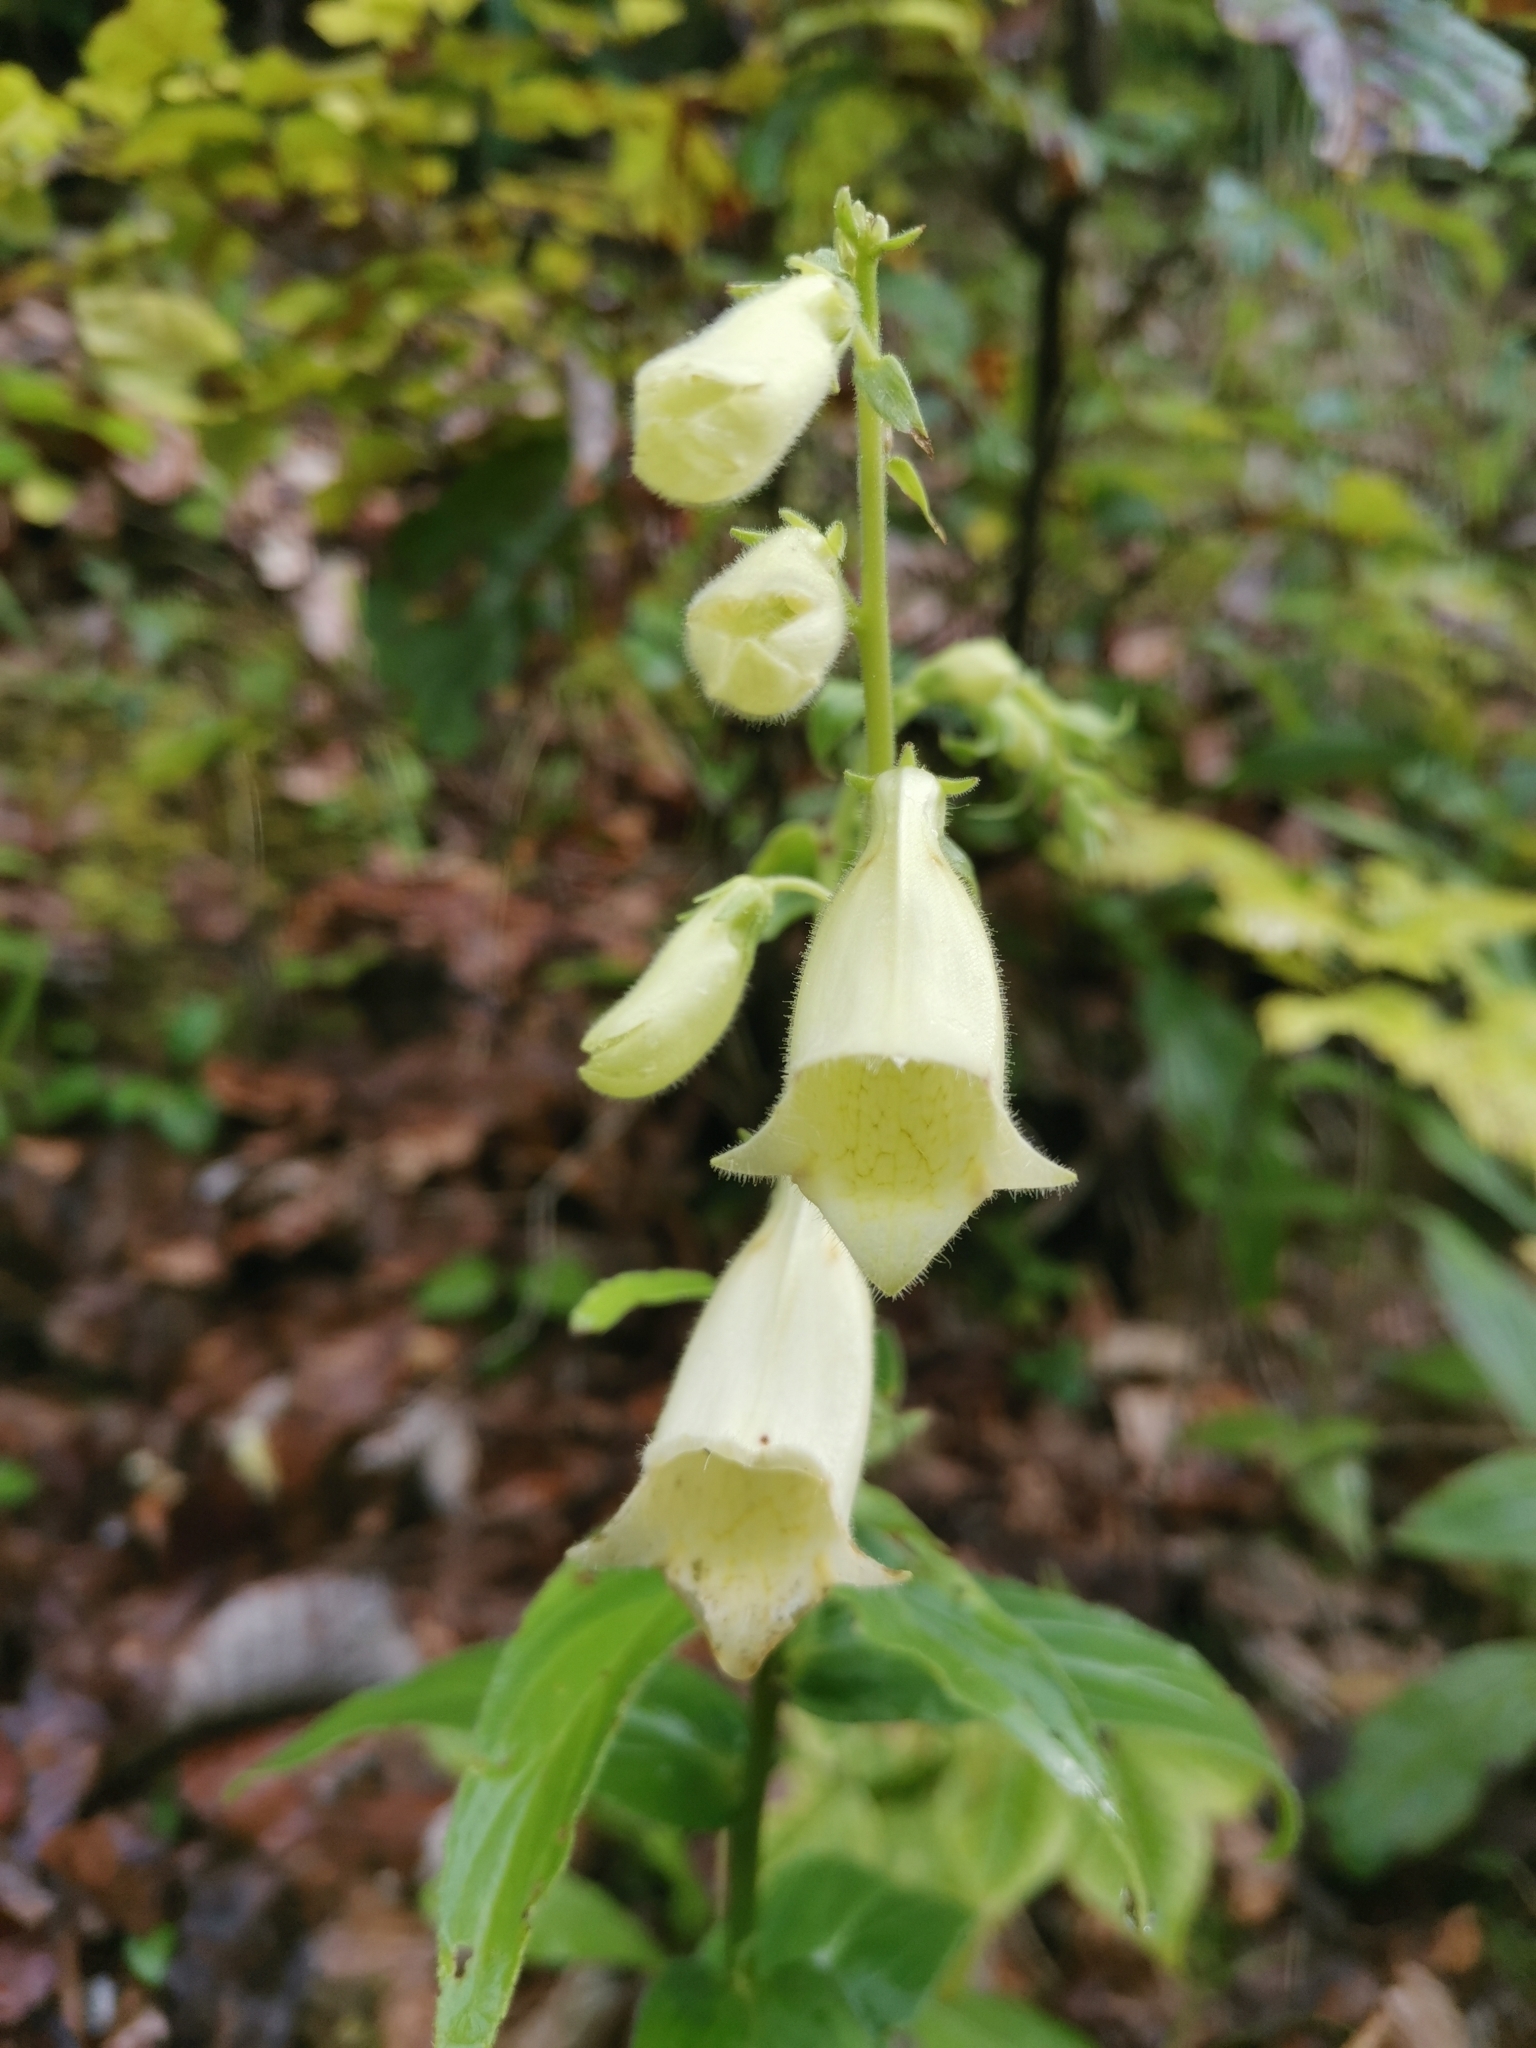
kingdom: Plantae
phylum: Tracheophyta
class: Magnoliopsida
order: Lamiales
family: Plantaginaceae
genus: Digitalis
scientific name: Digitalis grandiflora
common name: Yellow foxglove
